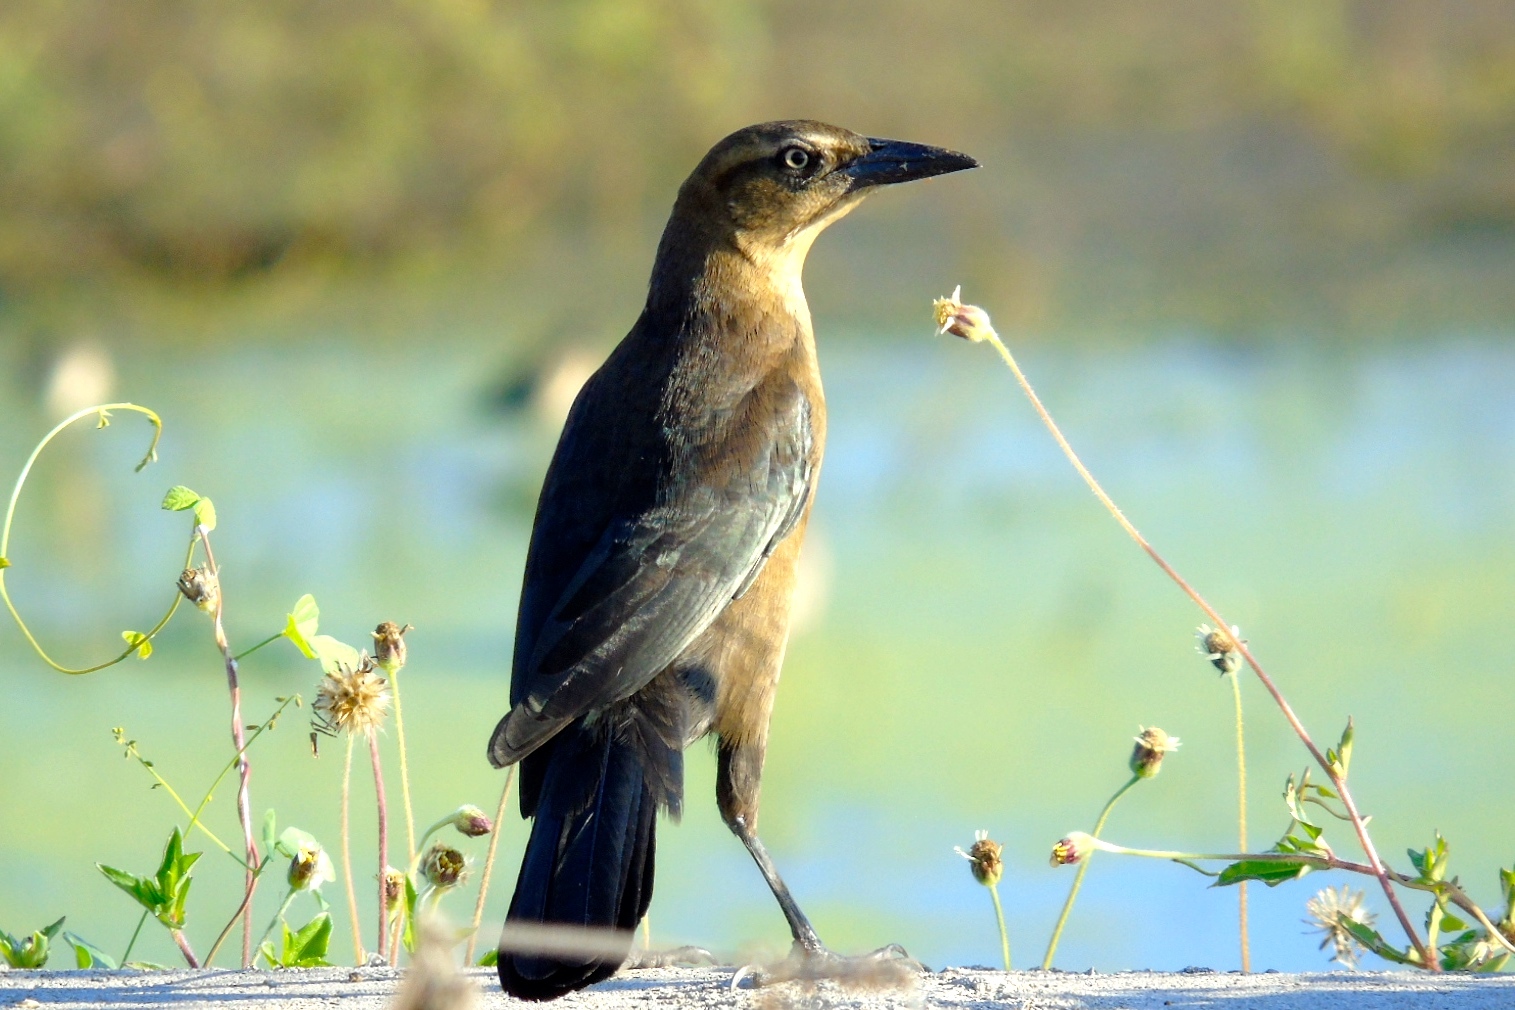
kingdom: Animalia
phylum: Chordata
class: Aves
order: Passeriformes
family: Icteridae
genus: Quiscalus
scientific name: Quiscalus mexicanus
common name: Great-tailed grackle
